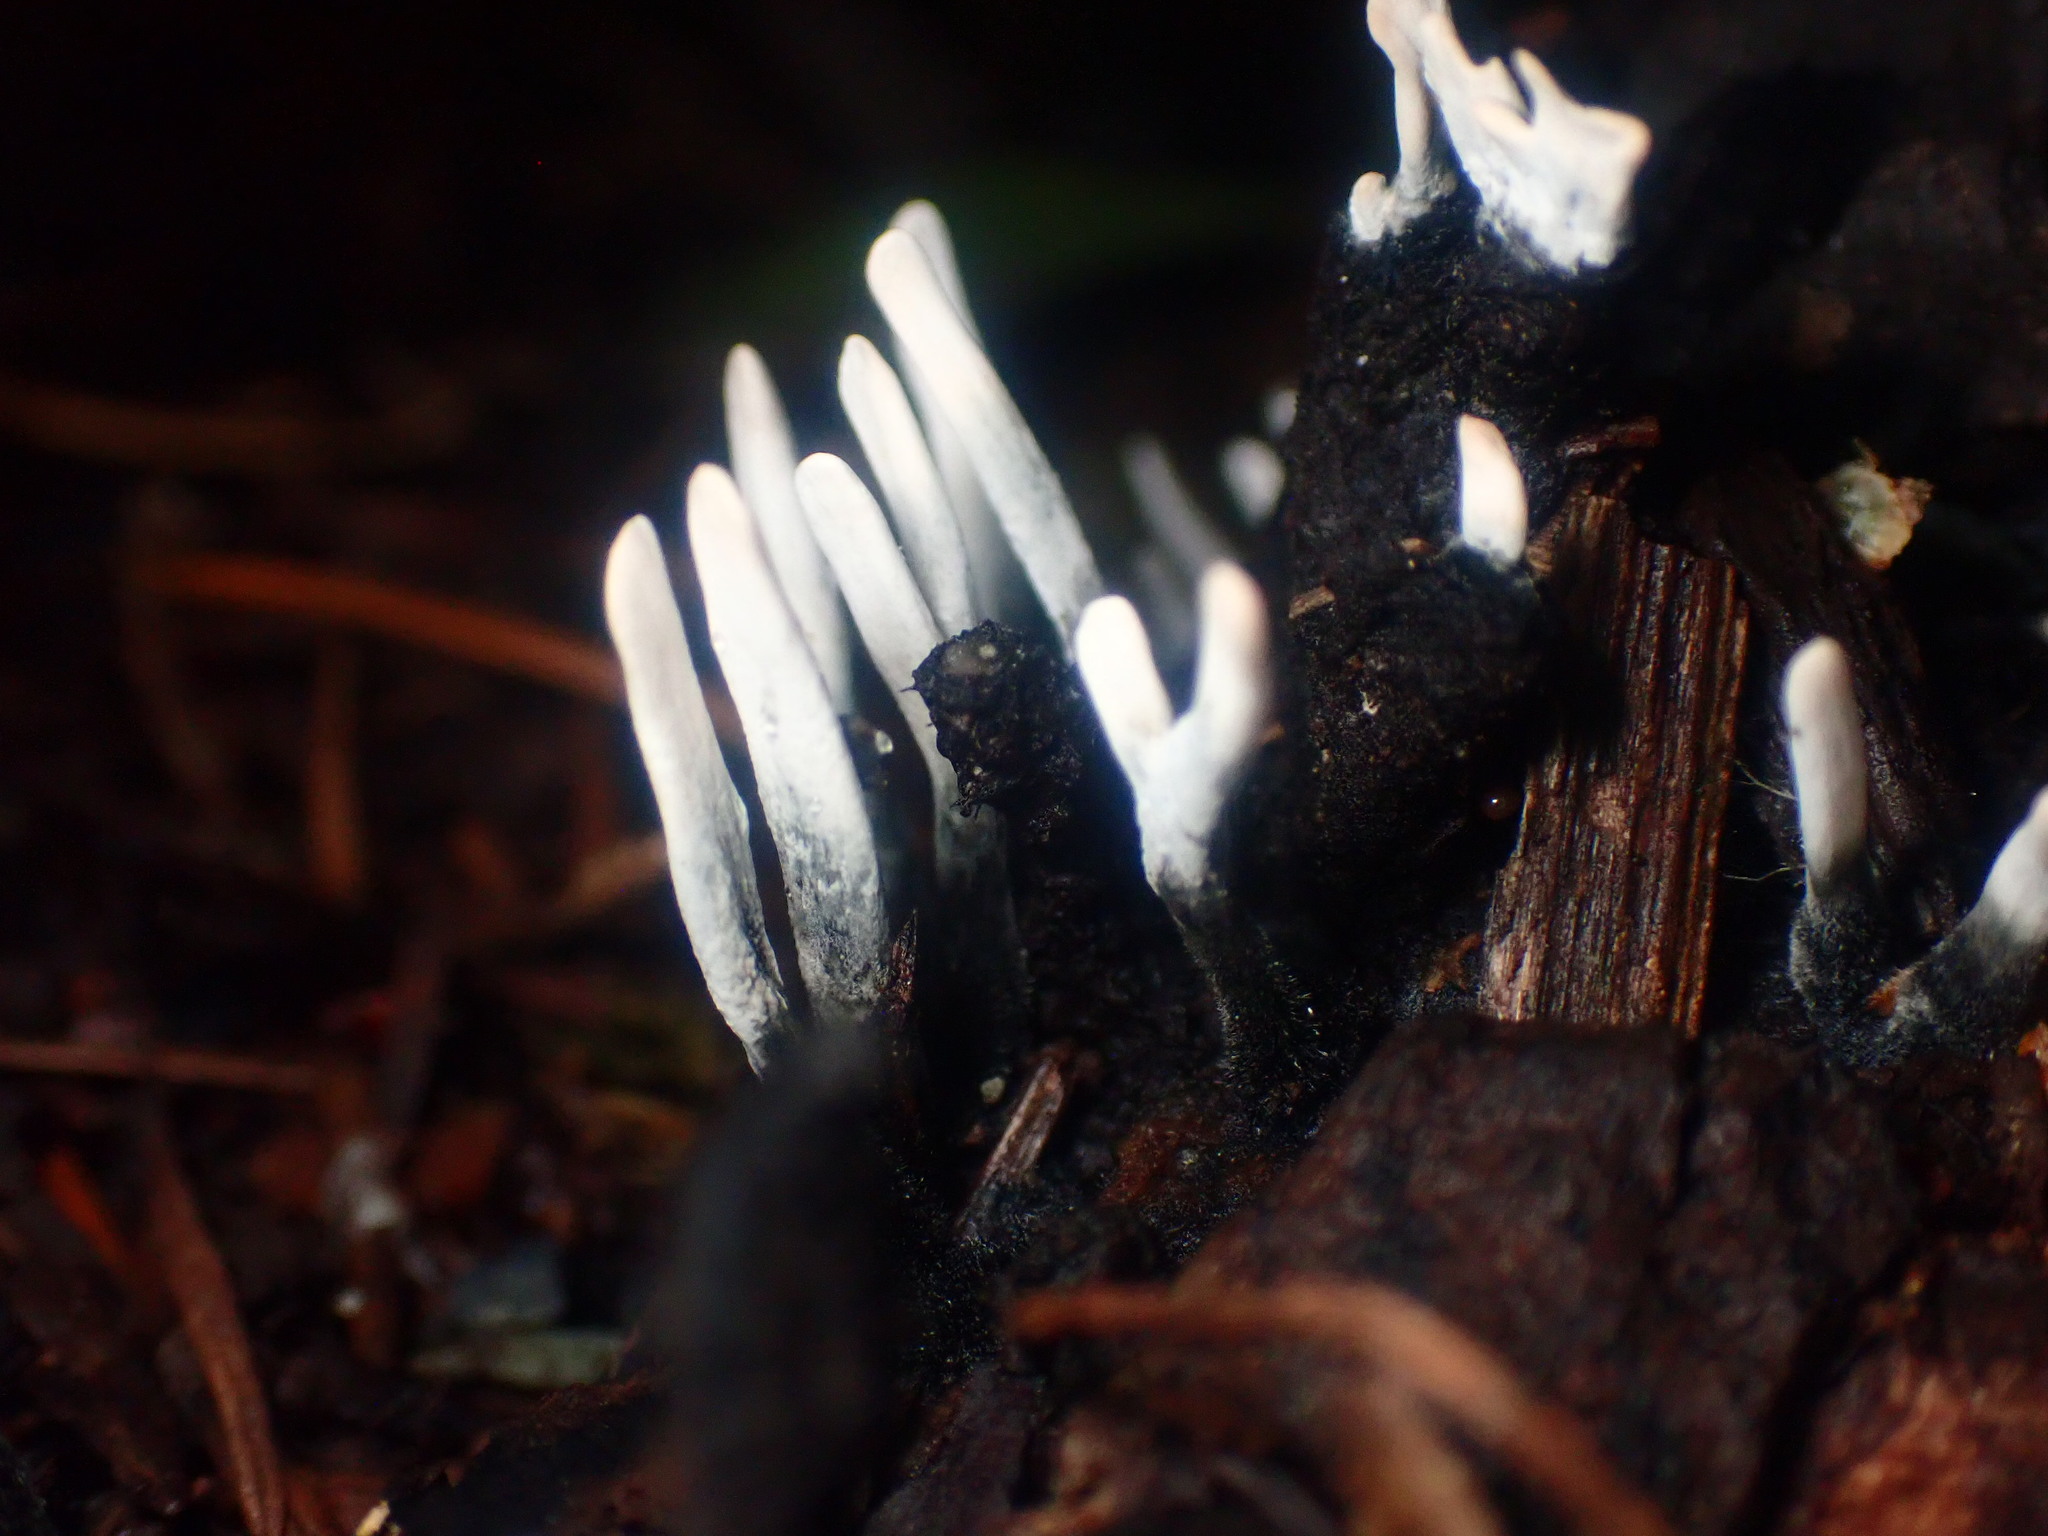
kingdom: Fungi
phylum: Ascomycota
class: Sordariomycetes
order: Xylariales
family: Xylariaceae
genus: Xylaria
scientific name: Xylaria hypoxylon
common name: Candle-snuff fungus
